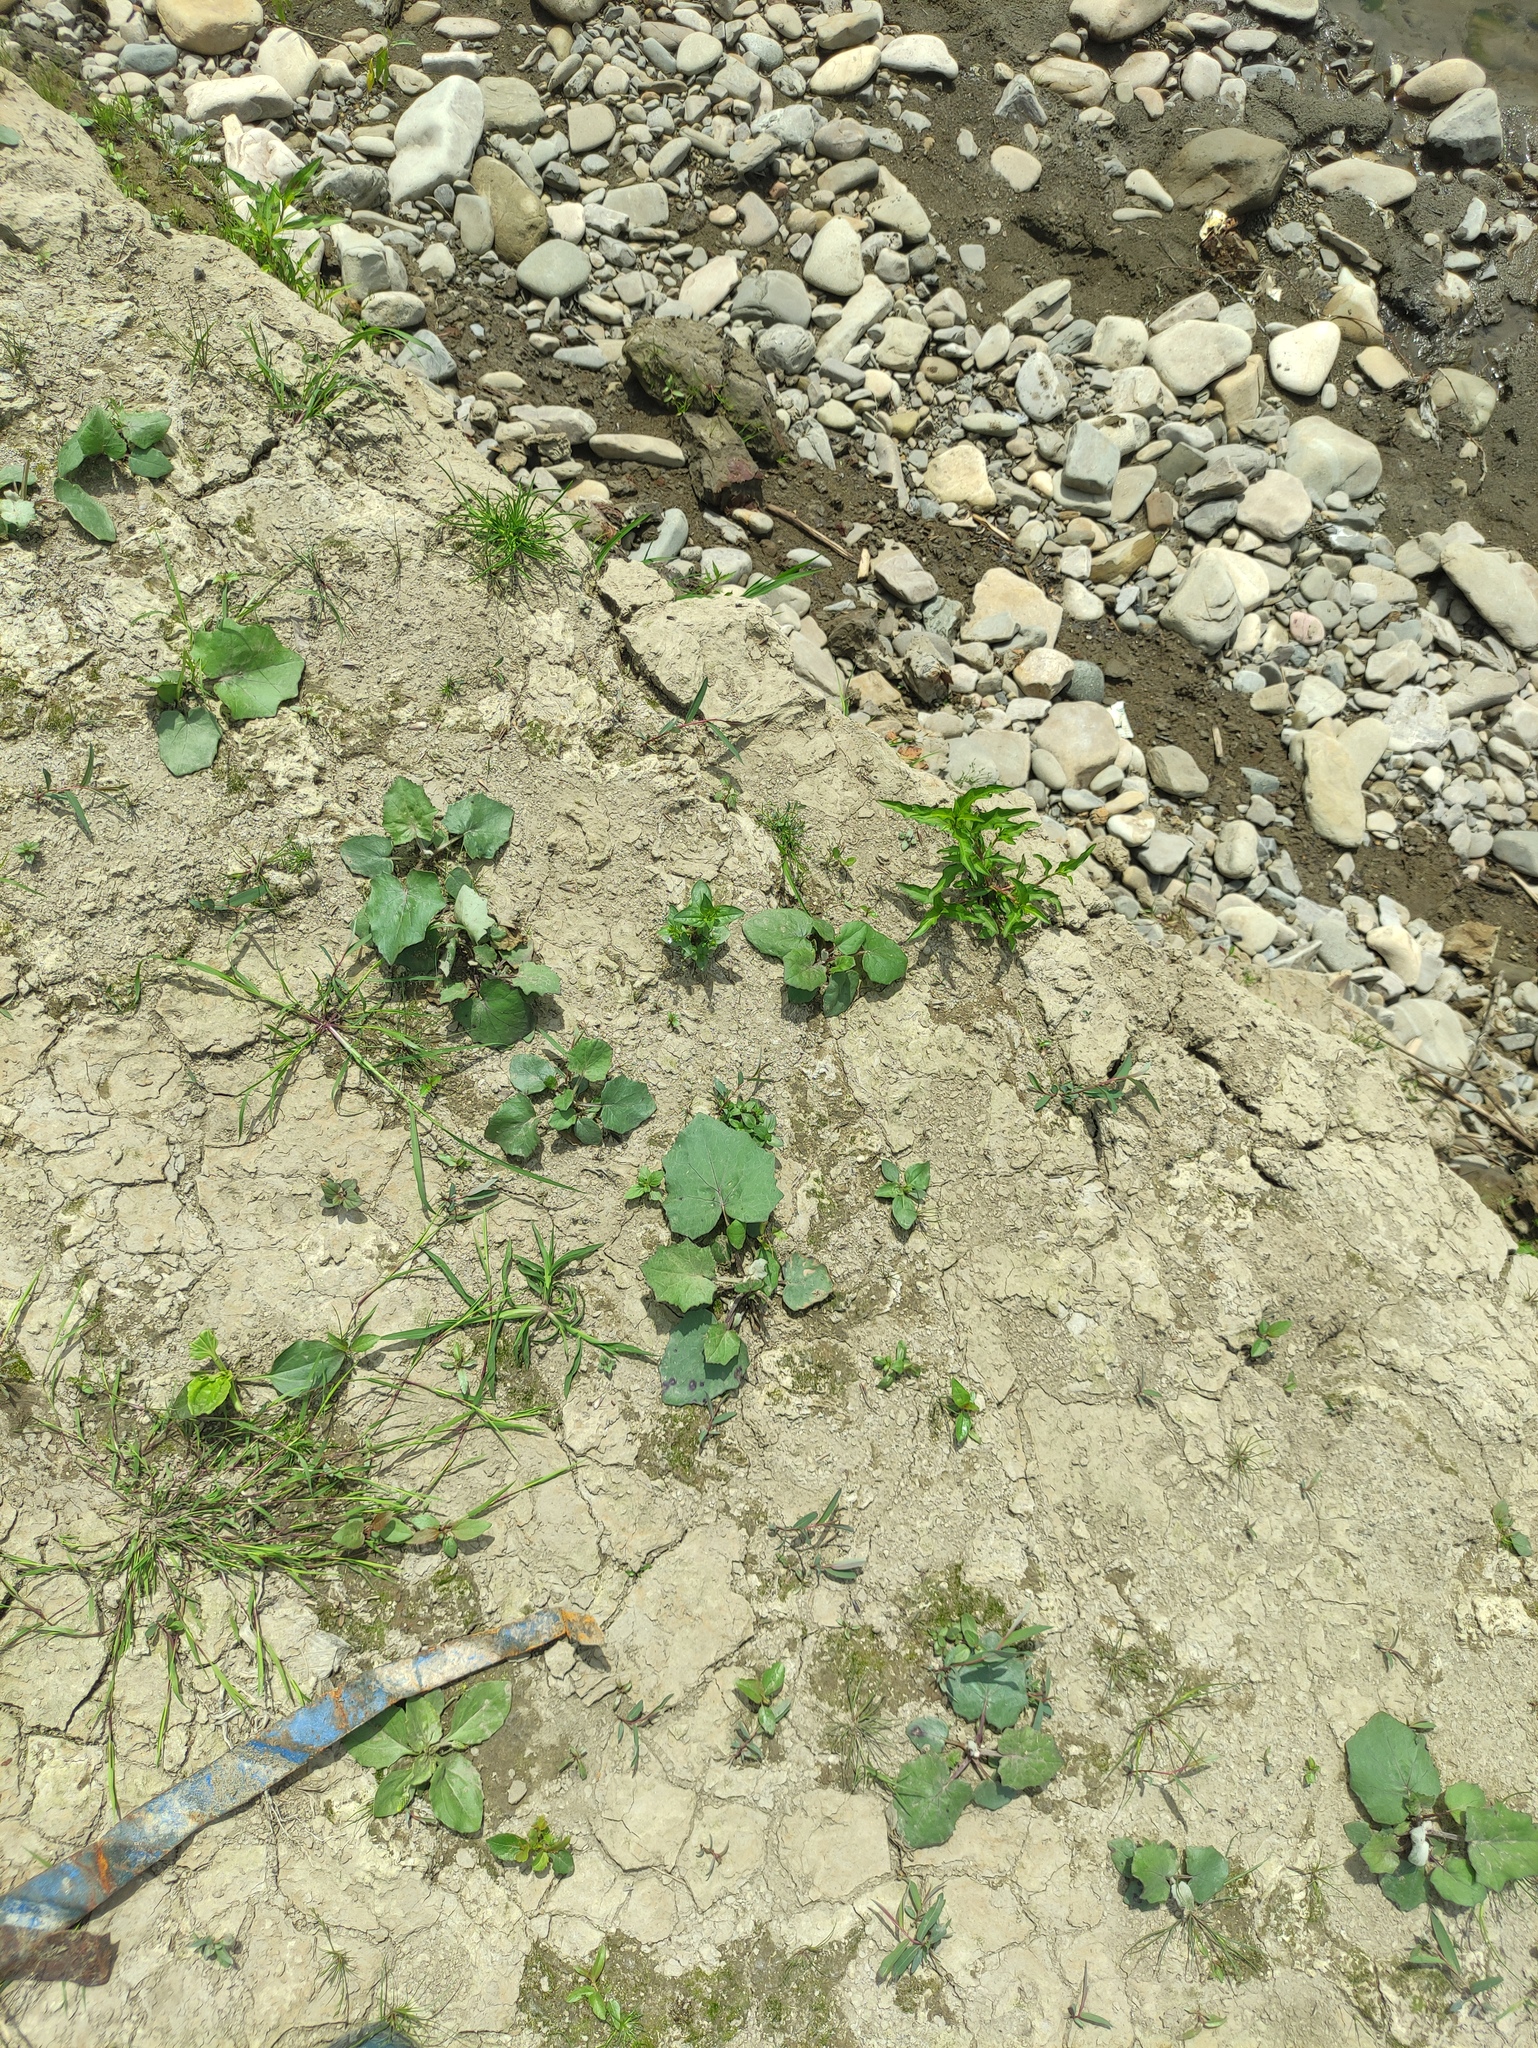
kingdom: Plantae
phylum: Tracheophyta
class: Magnoliopsida
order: Asterales
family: Asteraceae
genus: Tussilago
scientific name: Tussilago farfara
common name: Coltsfoot
